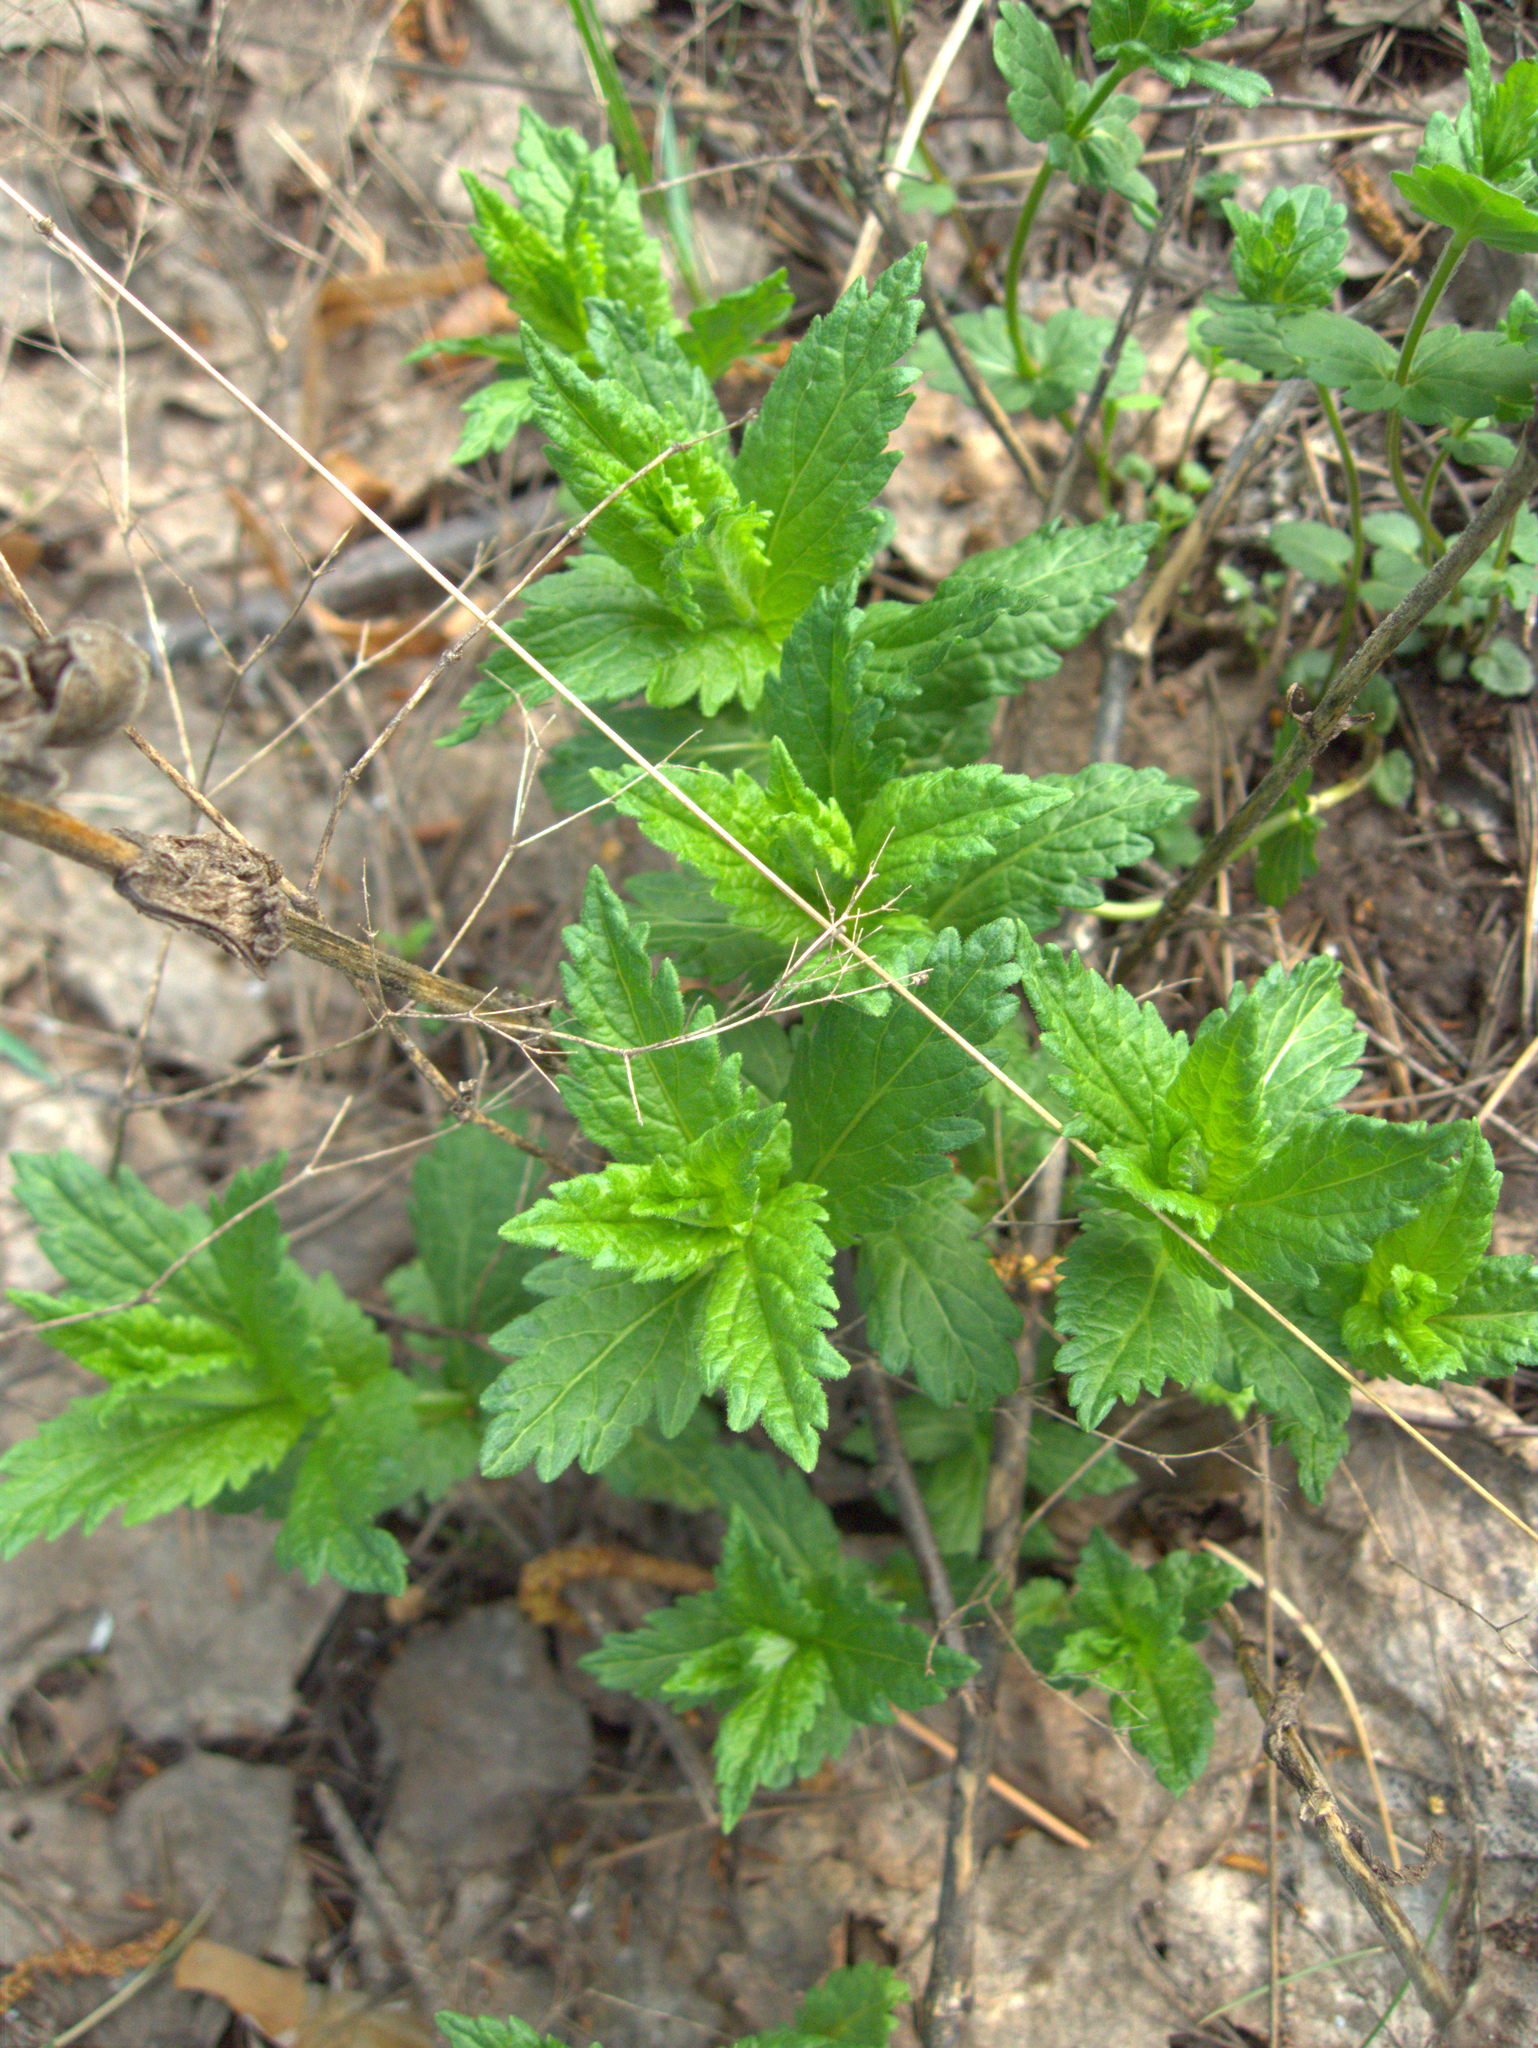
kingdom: Plantae
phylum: Tracheophyta
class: Magnoliopsida
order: Lamiales
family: Plantaginaceae
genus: Veronica
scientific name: Veronica teucrium
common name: Large speedwell
